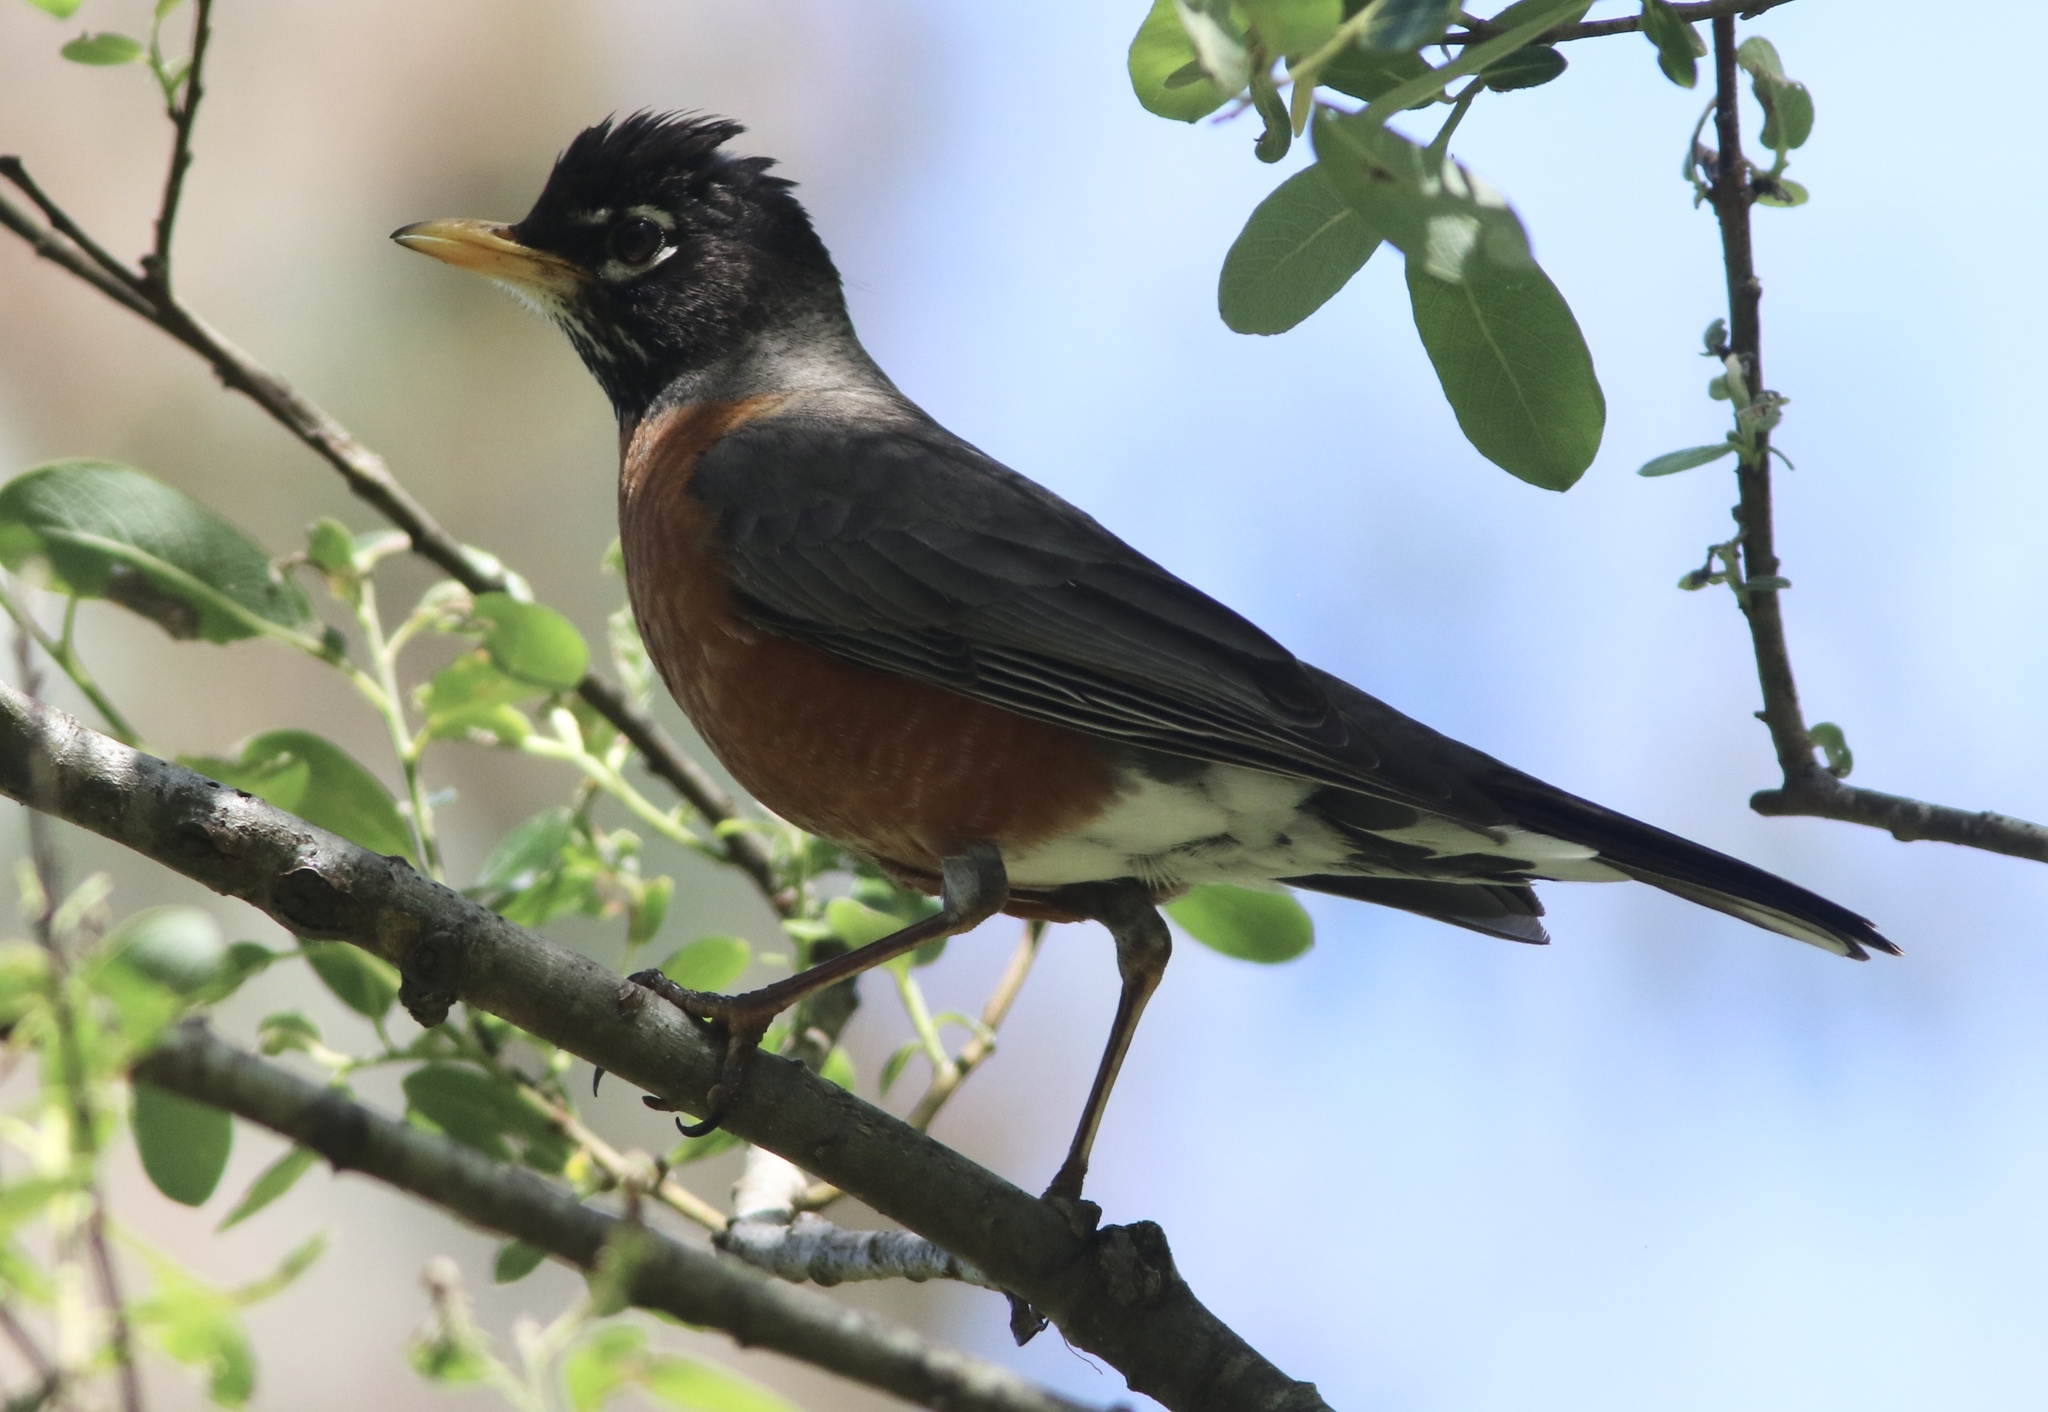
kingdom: Animalia
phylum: Chordata
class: Aves
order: Passeriformes
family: Turdidae
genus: Turdus
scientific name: Turdus migratorius
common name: American robin
